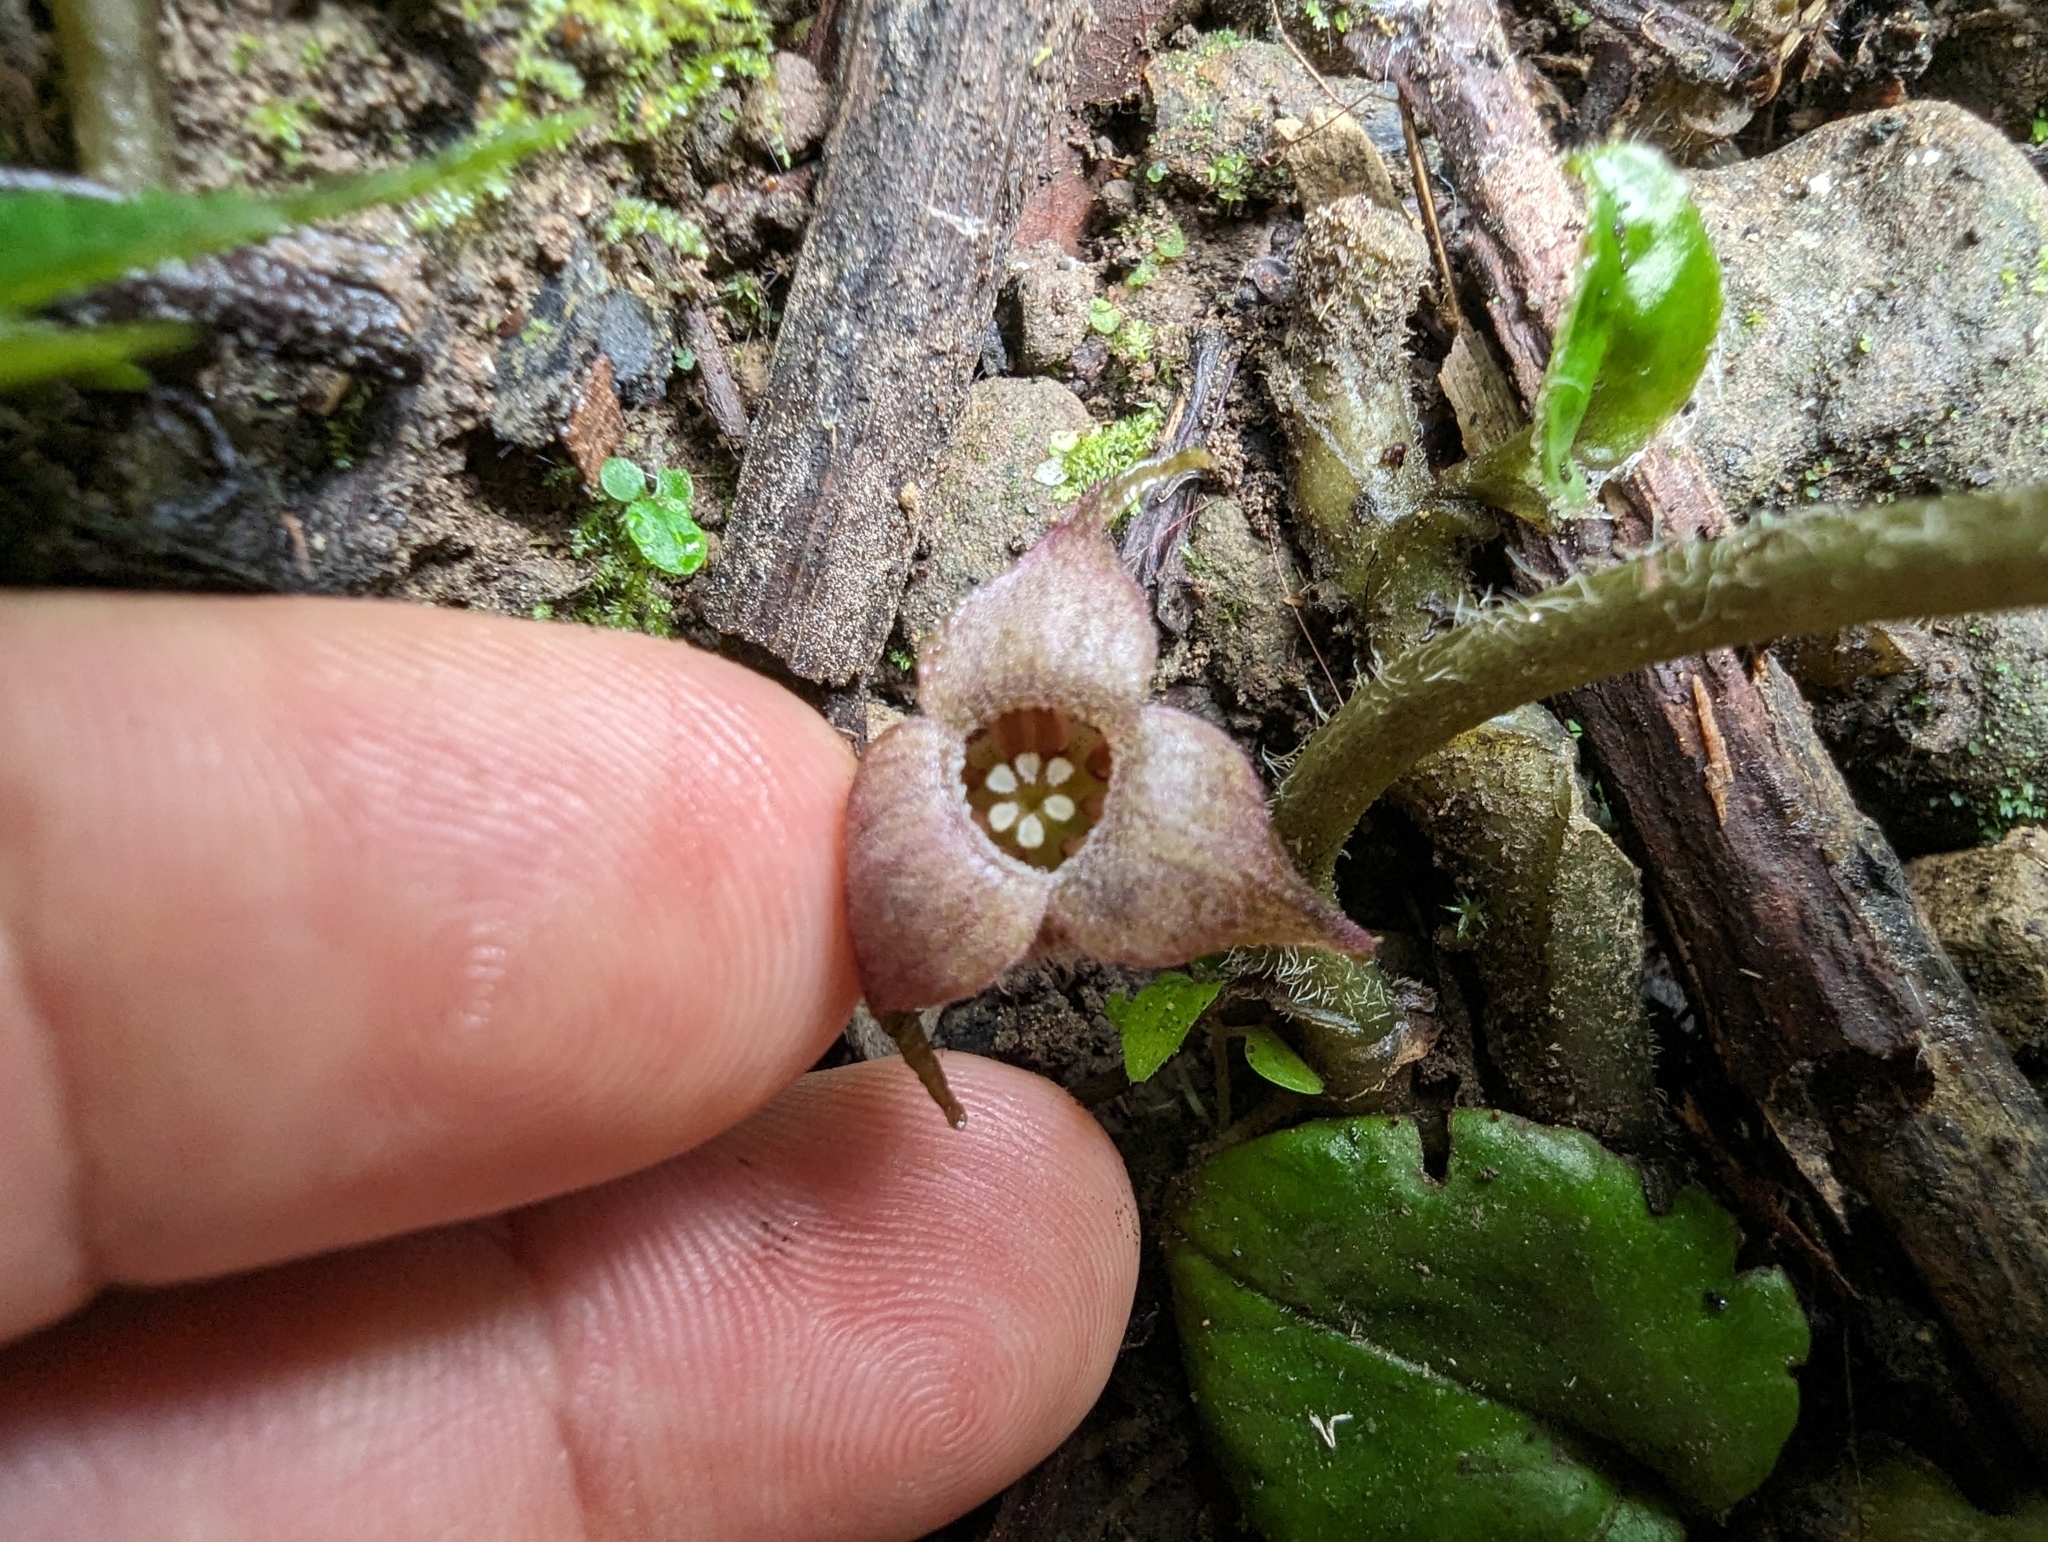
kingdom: Plantae
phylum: Tracheophyta
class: Magnoliopsida
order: Piperales
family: Aristolochiaceae
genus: Asarum
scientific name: Asarum caudigerum
